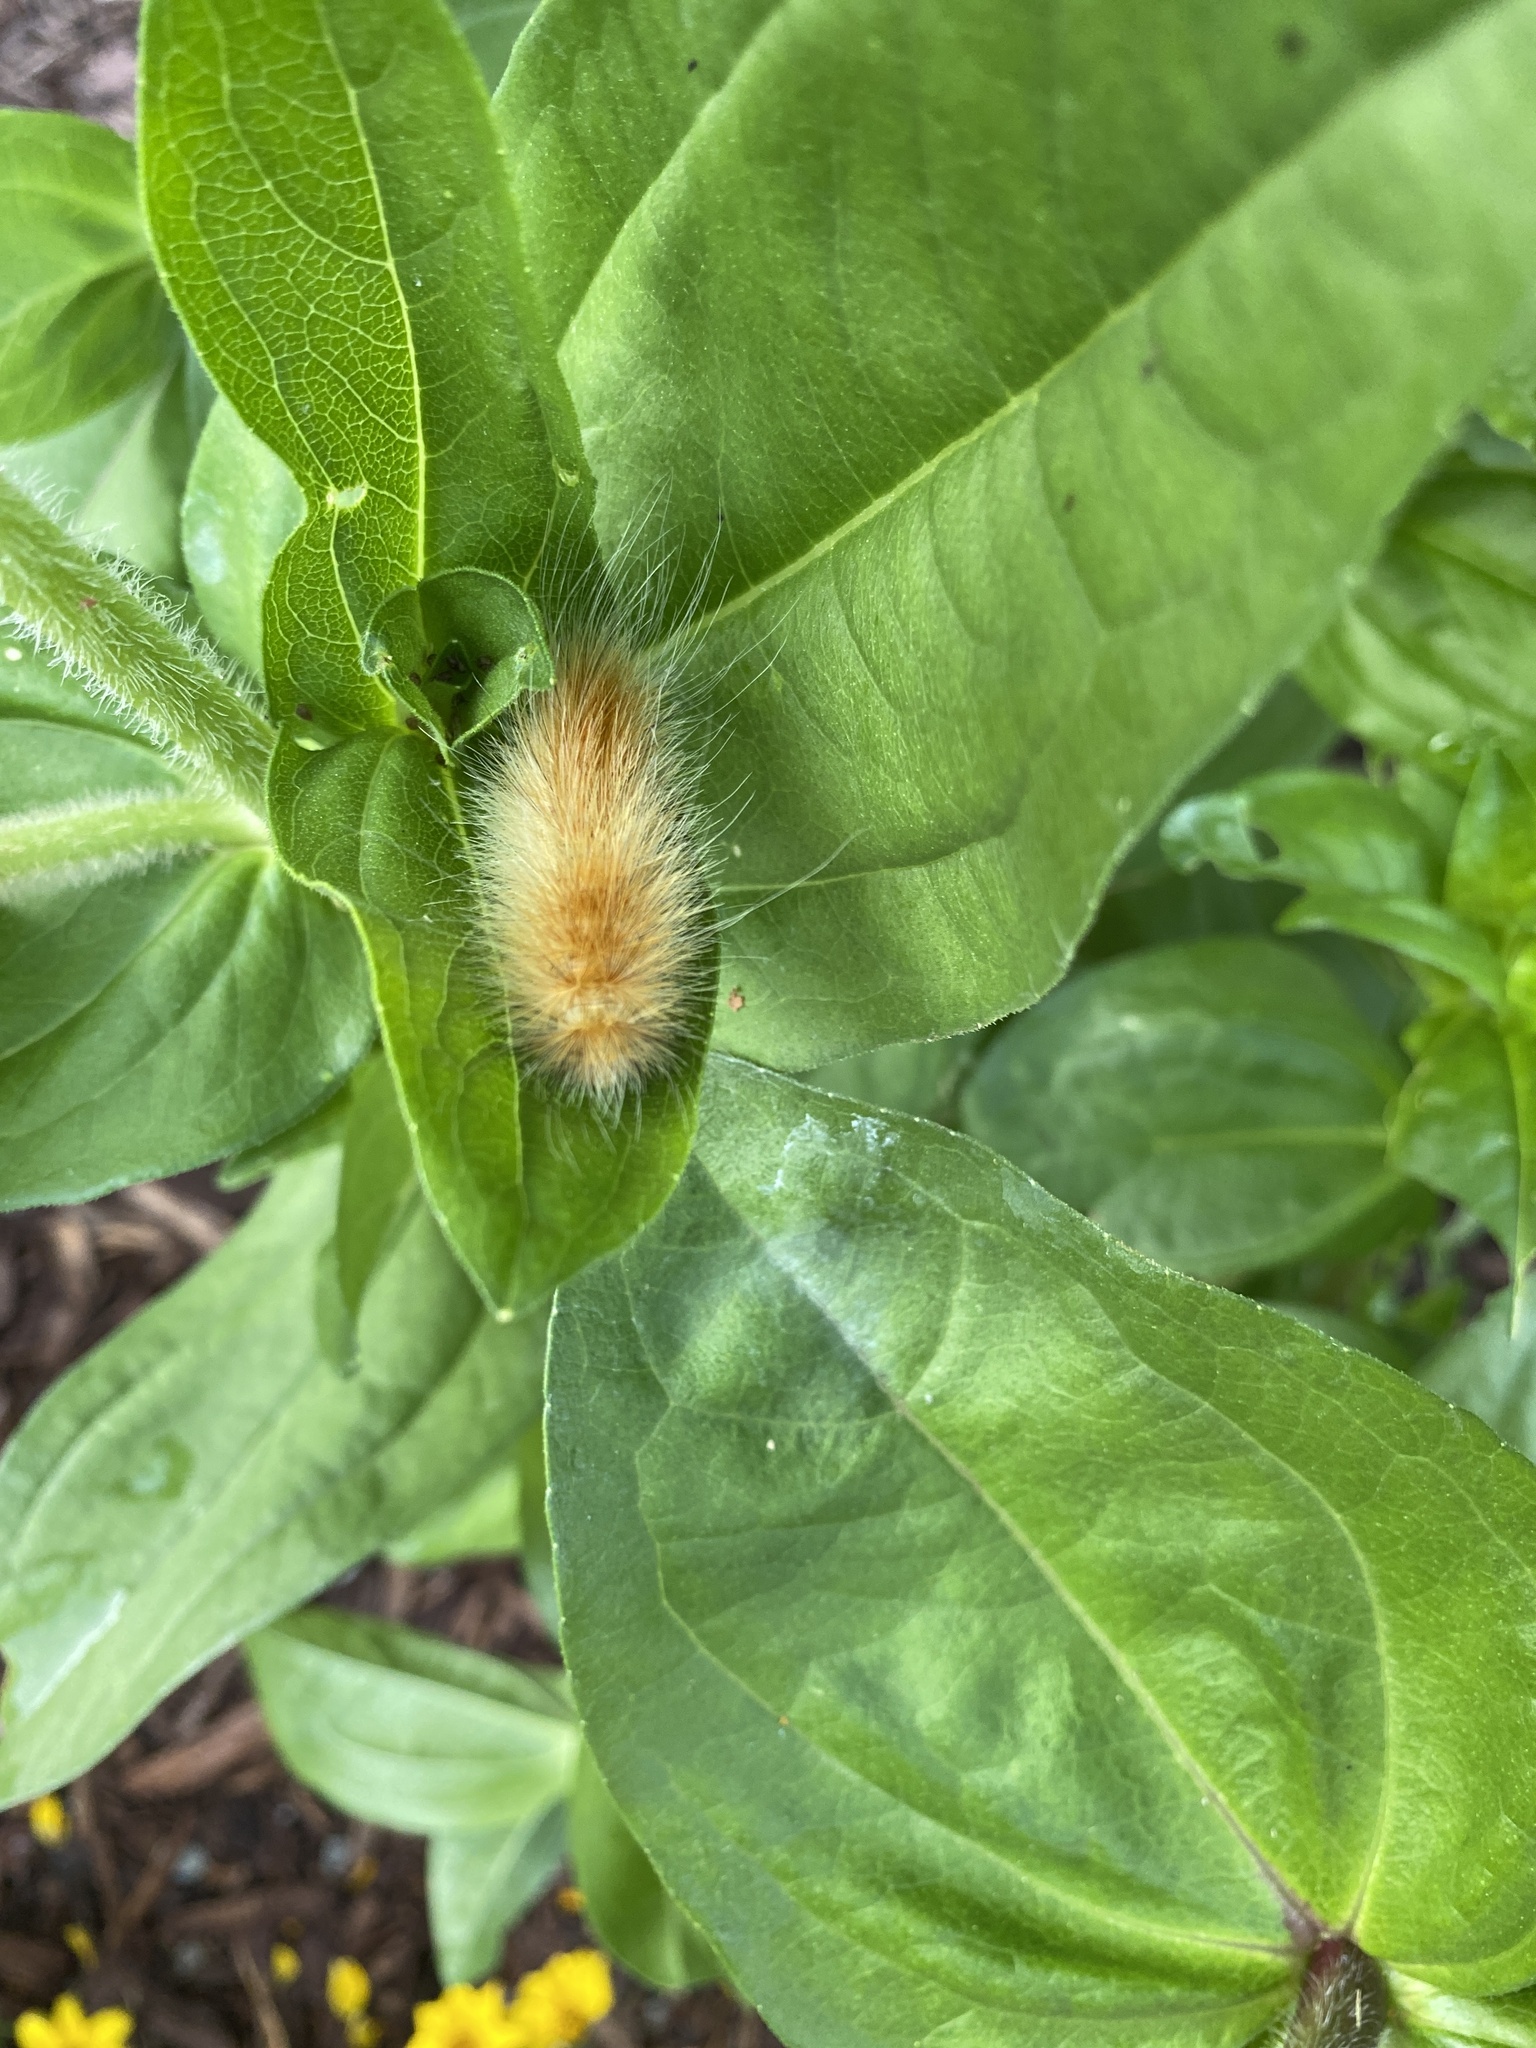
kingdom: Animalia
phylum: Arthropoda
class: Insecta
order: Lepidoptera
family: Erebidae
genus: Spilosoma
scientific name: Spilosoma virginica
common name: Virginia tiger moth
